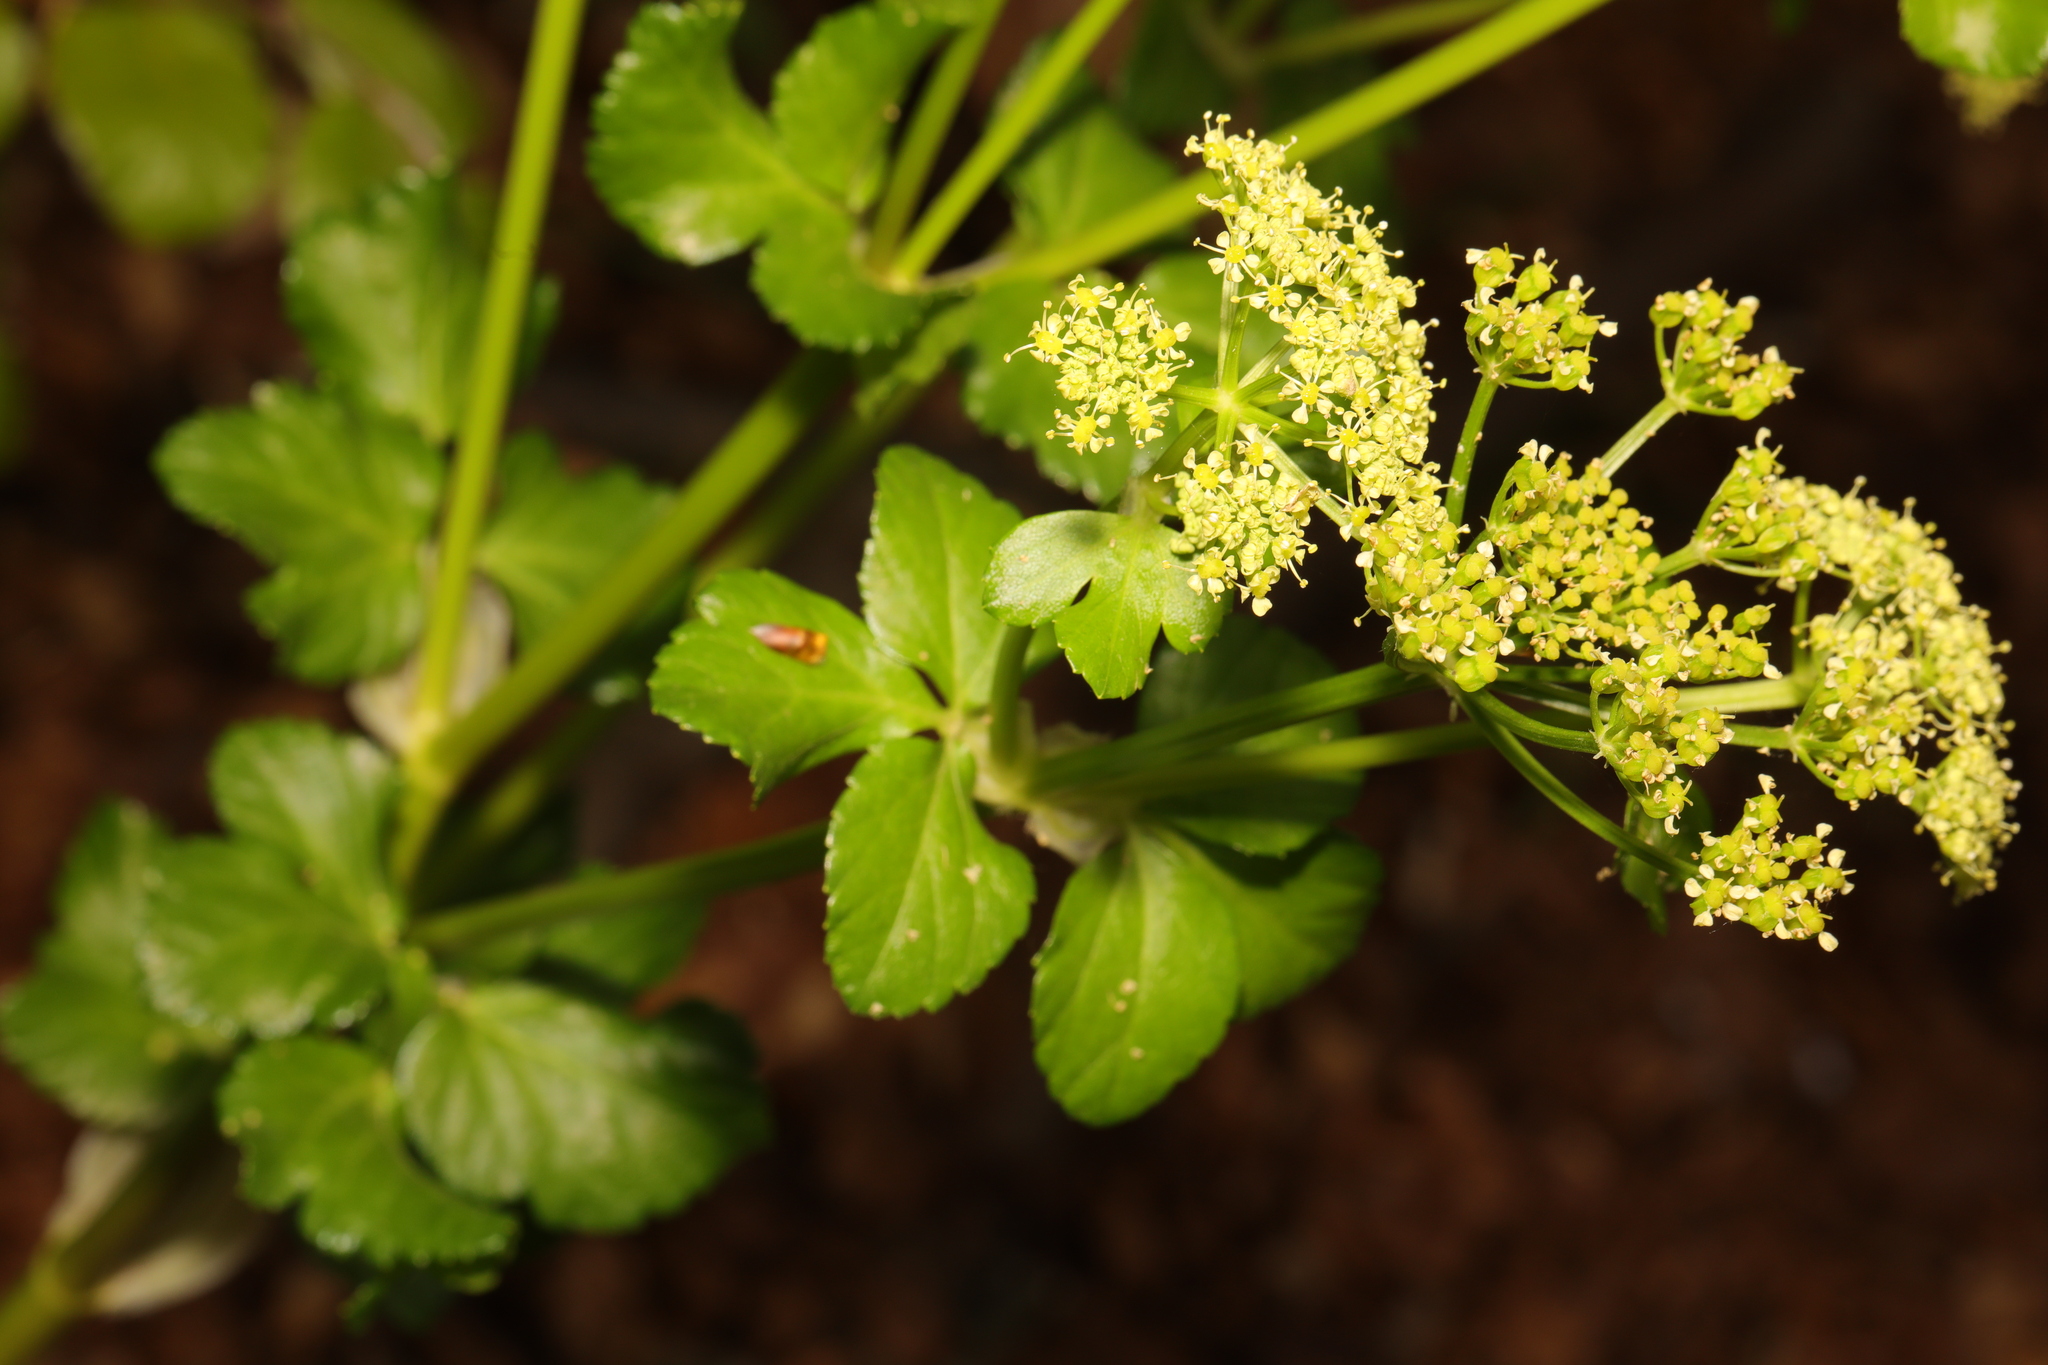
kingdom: Plantae
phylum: Tracheophyta
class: Magnoliopsida
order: Apiales
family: Apiaceae
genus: Smyrnium
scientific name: Smyrnium olusatrum
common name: Alexanders
